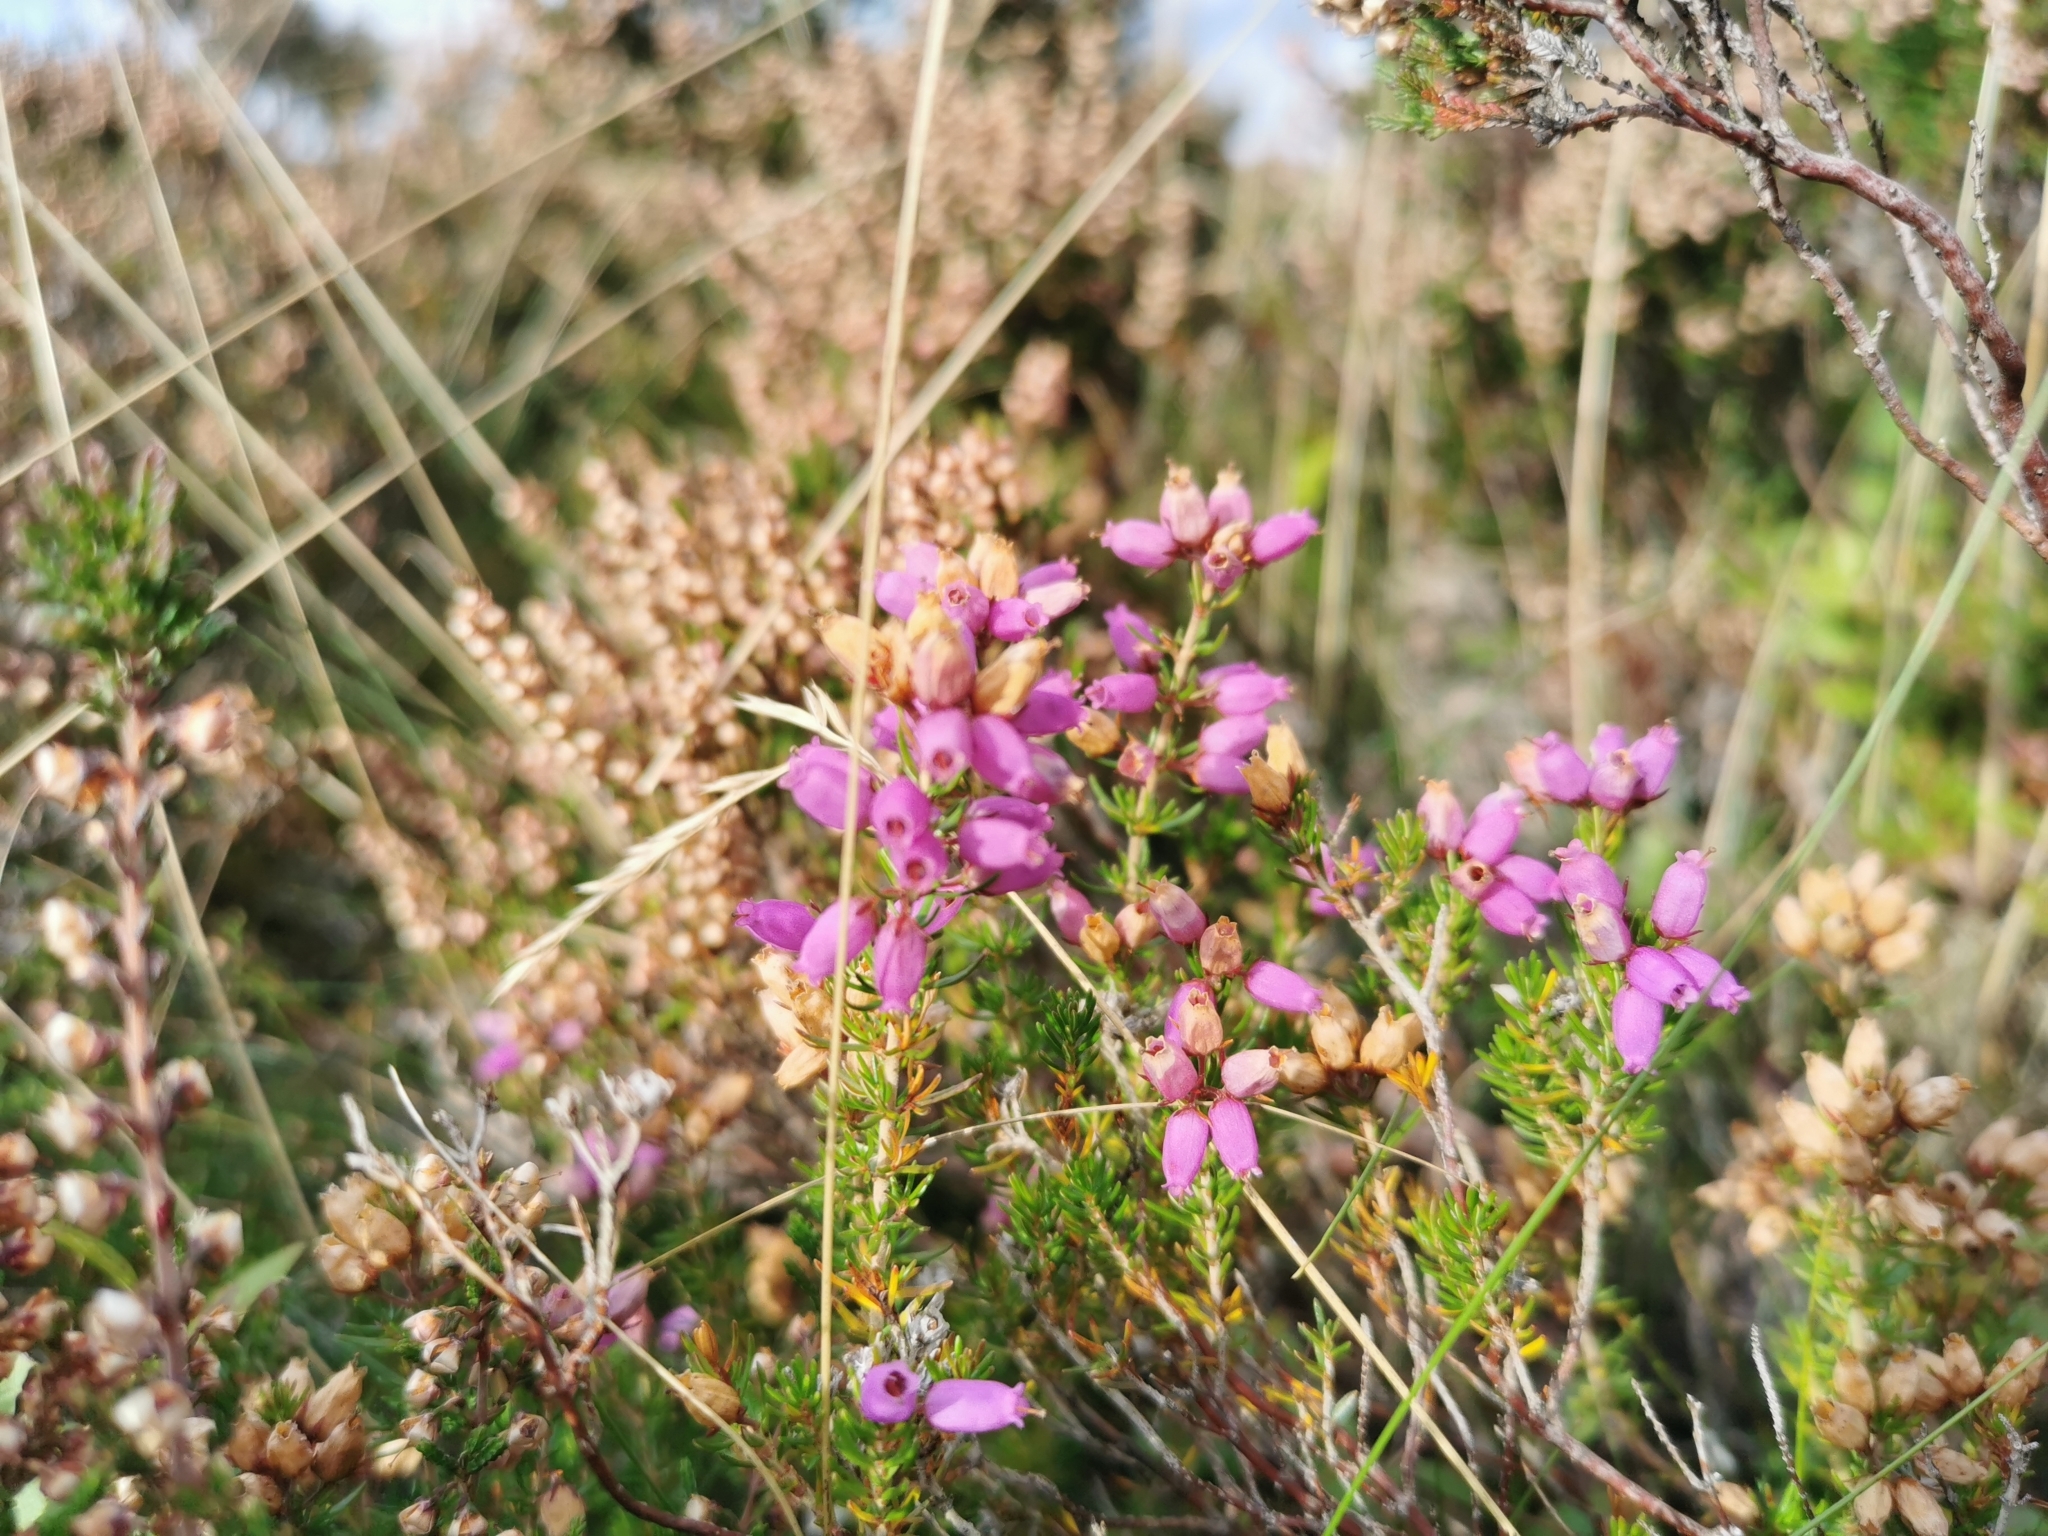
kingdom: Plantae
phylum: Tracheophyta
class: Magnoliopsida
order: Ericales
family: Ericaceae
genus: Erica
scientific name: Erica cinerea
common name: Bell heather
